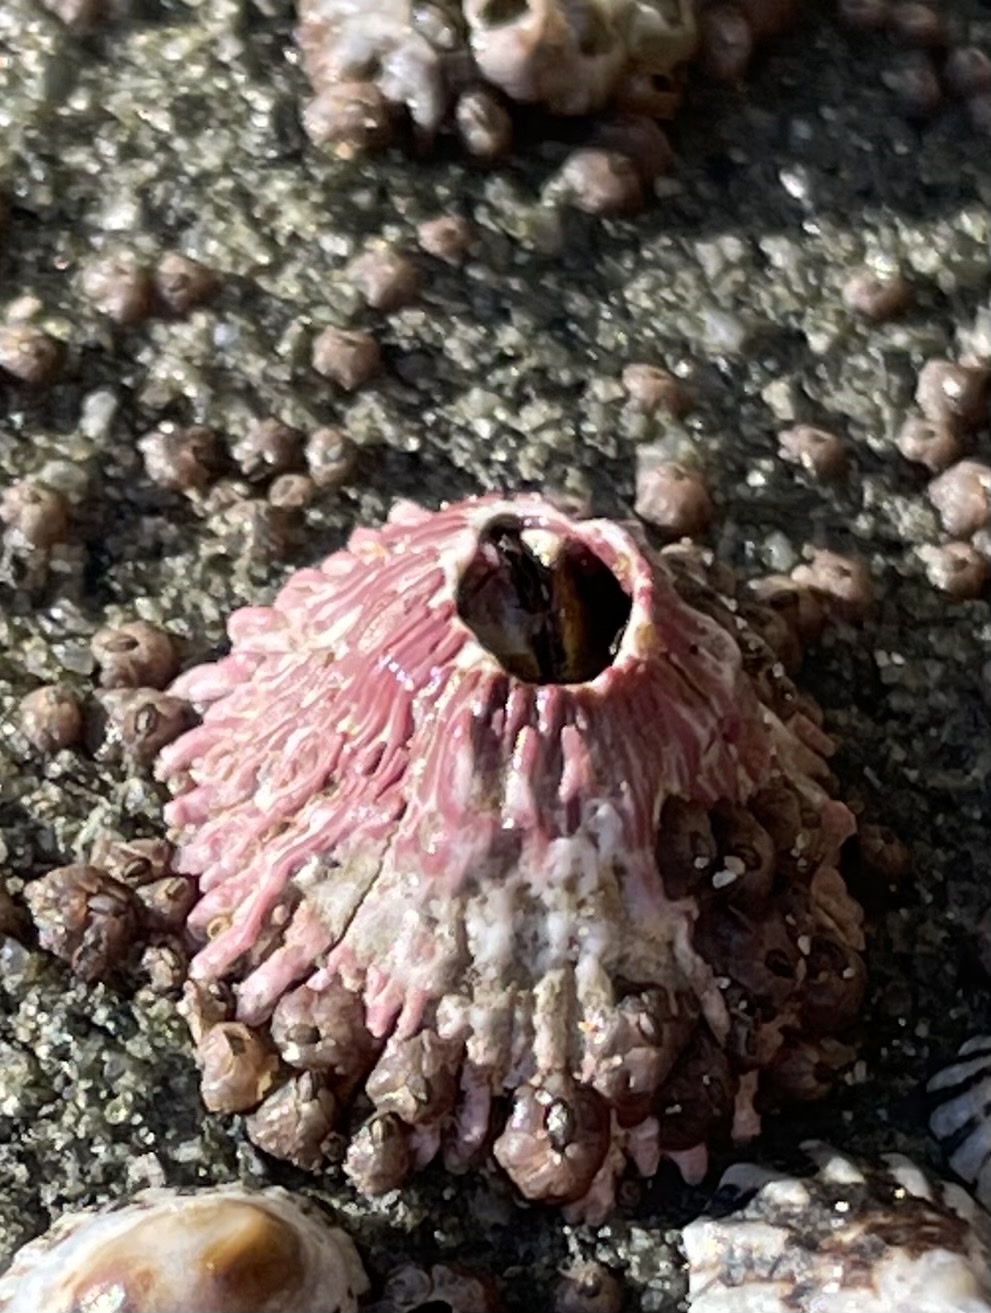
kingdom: Animalia
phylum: Arthropoda
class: Maxillopoda
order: Sessilia
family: Tetraclitidae
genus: Tetraclita
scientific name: Tetraclita rubescens
